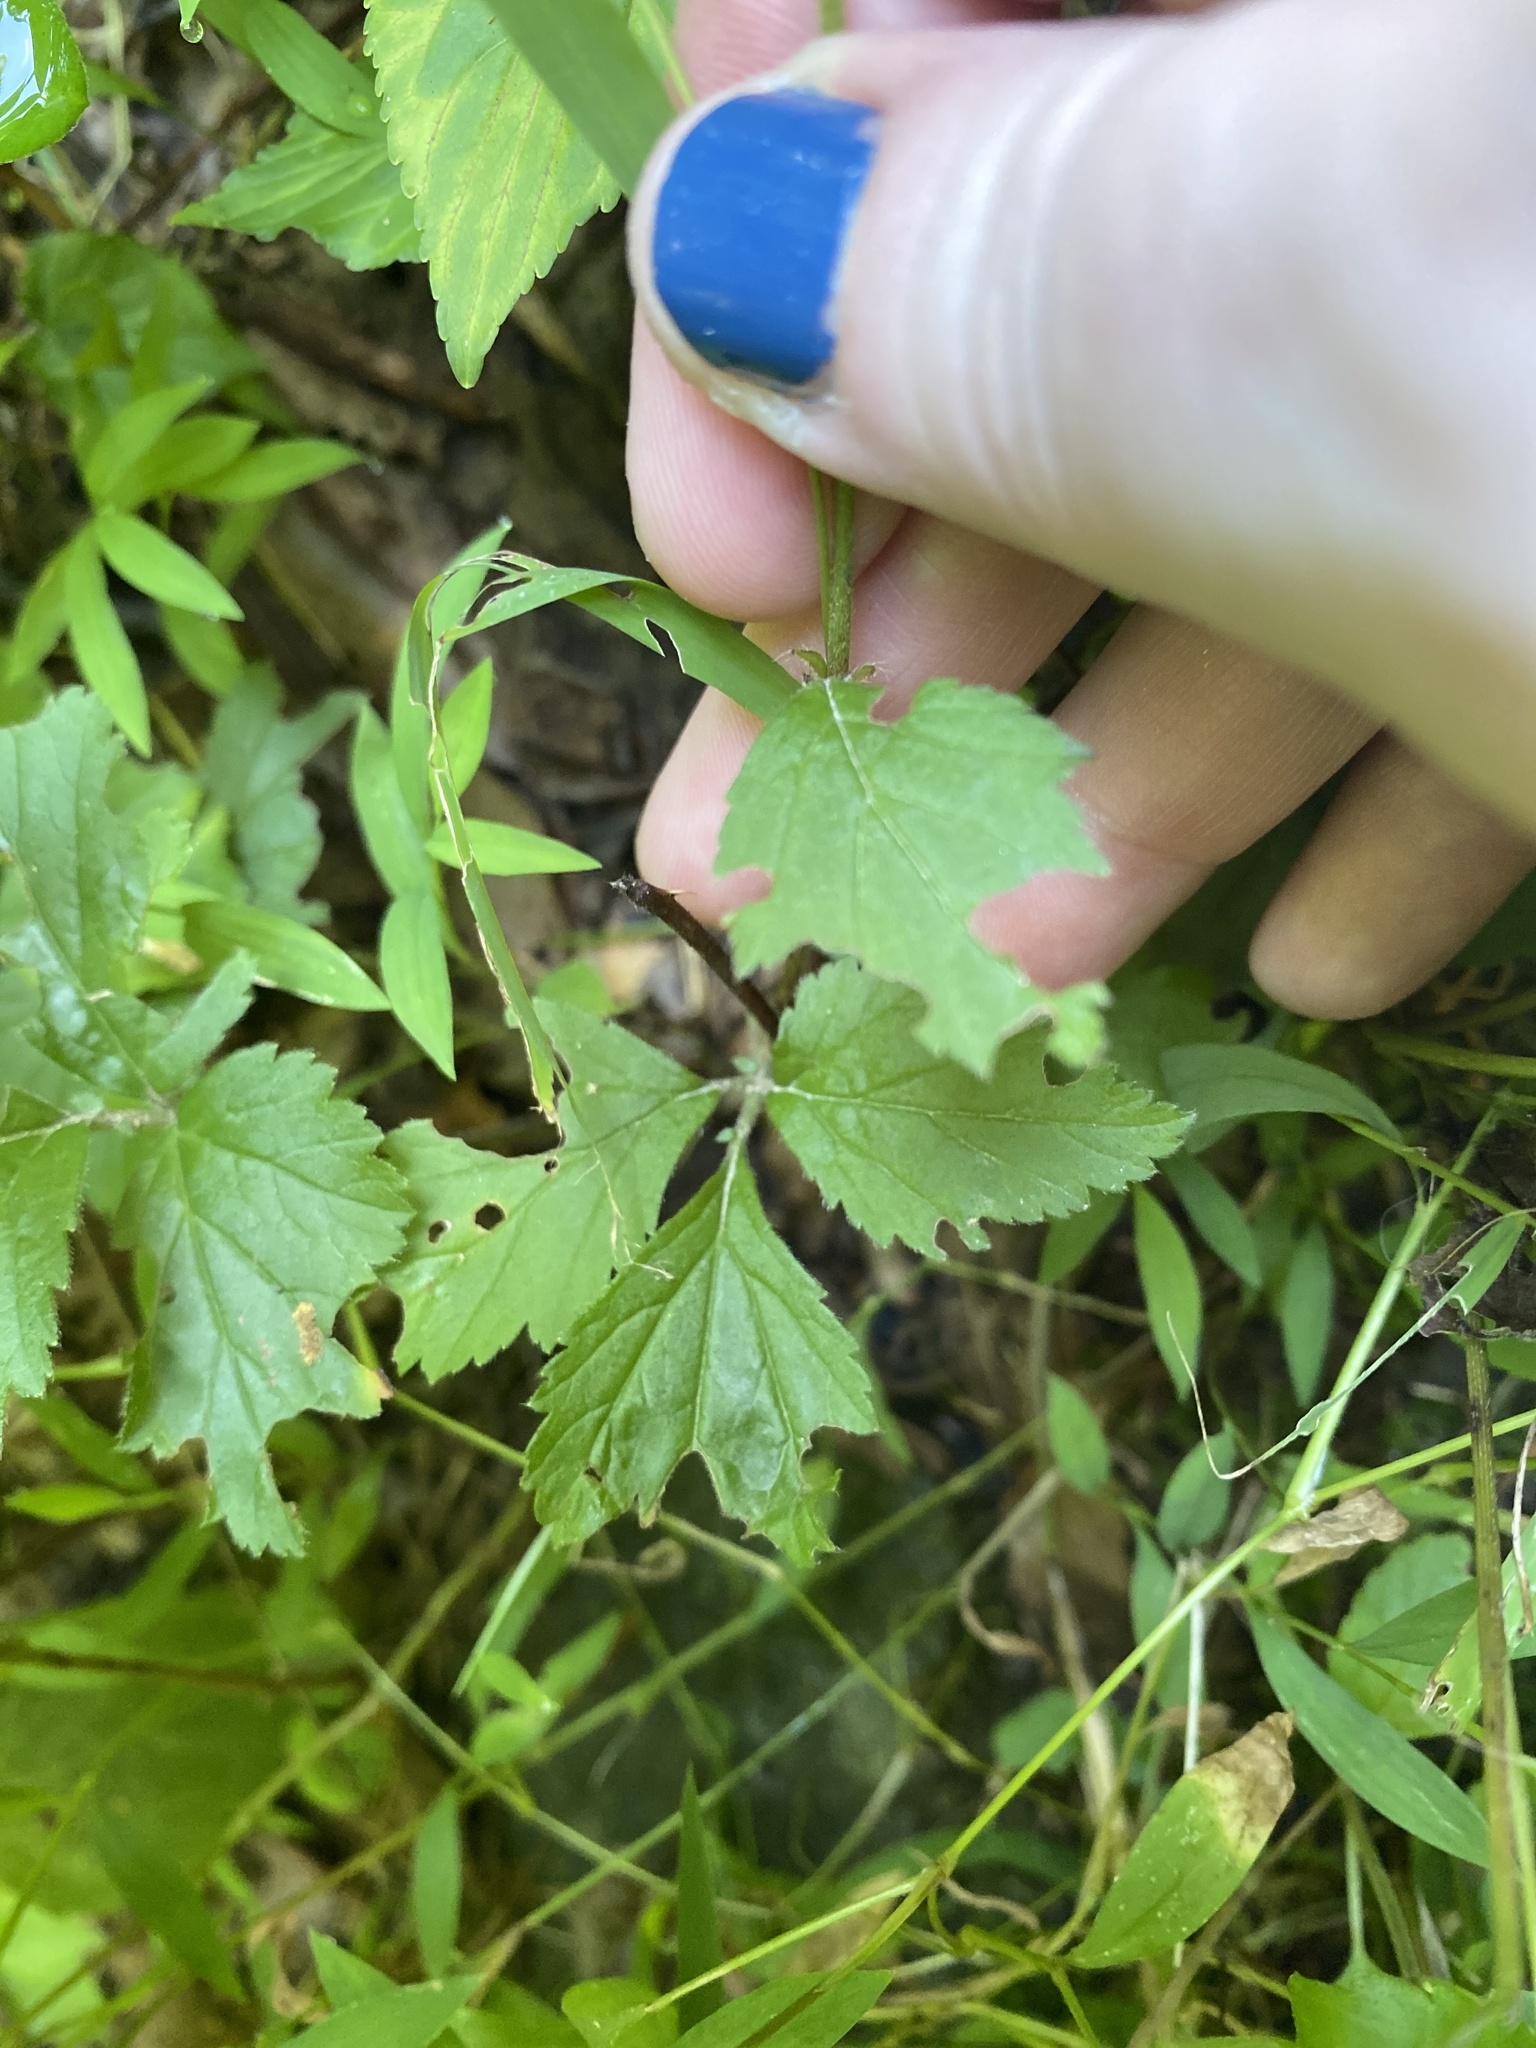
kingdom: Plantae
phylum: Tracheophyta
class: Magnoliopsida
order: Rosales
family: Rosaceae
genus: Geum
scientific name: Geum canadense
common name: White avens
